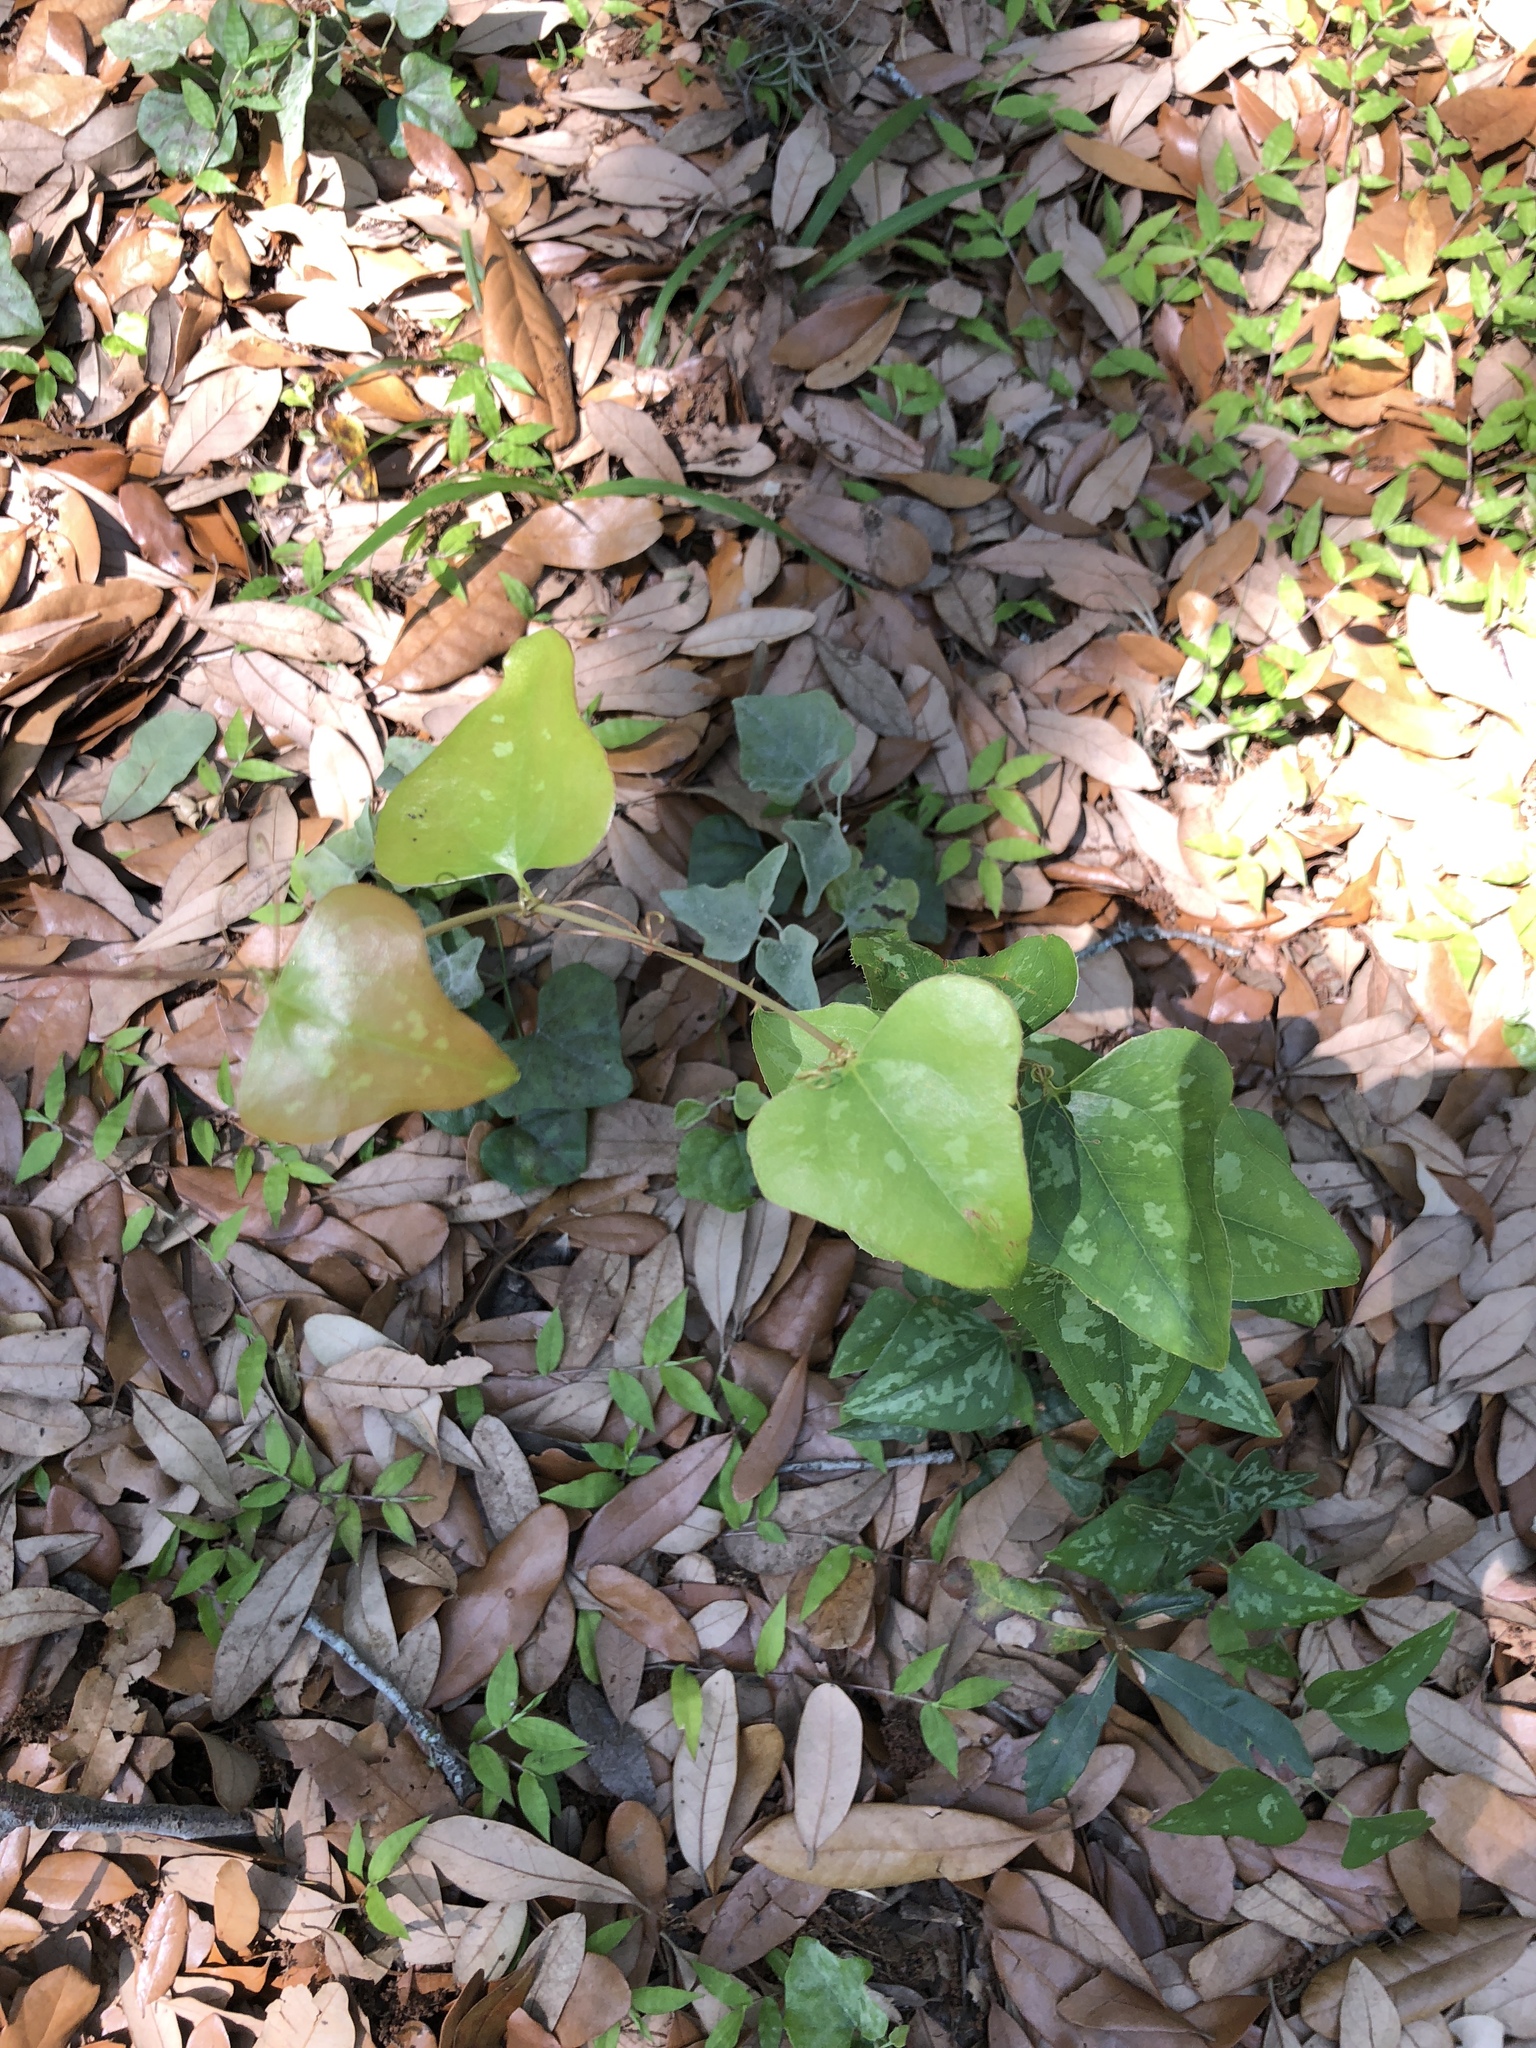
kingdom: Plantae
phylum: Tracheophyta
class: Liliopsida
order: Liliales
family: Smilacaceae
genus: Smilax
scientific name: Smilax bona-nox
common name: Catbrier
